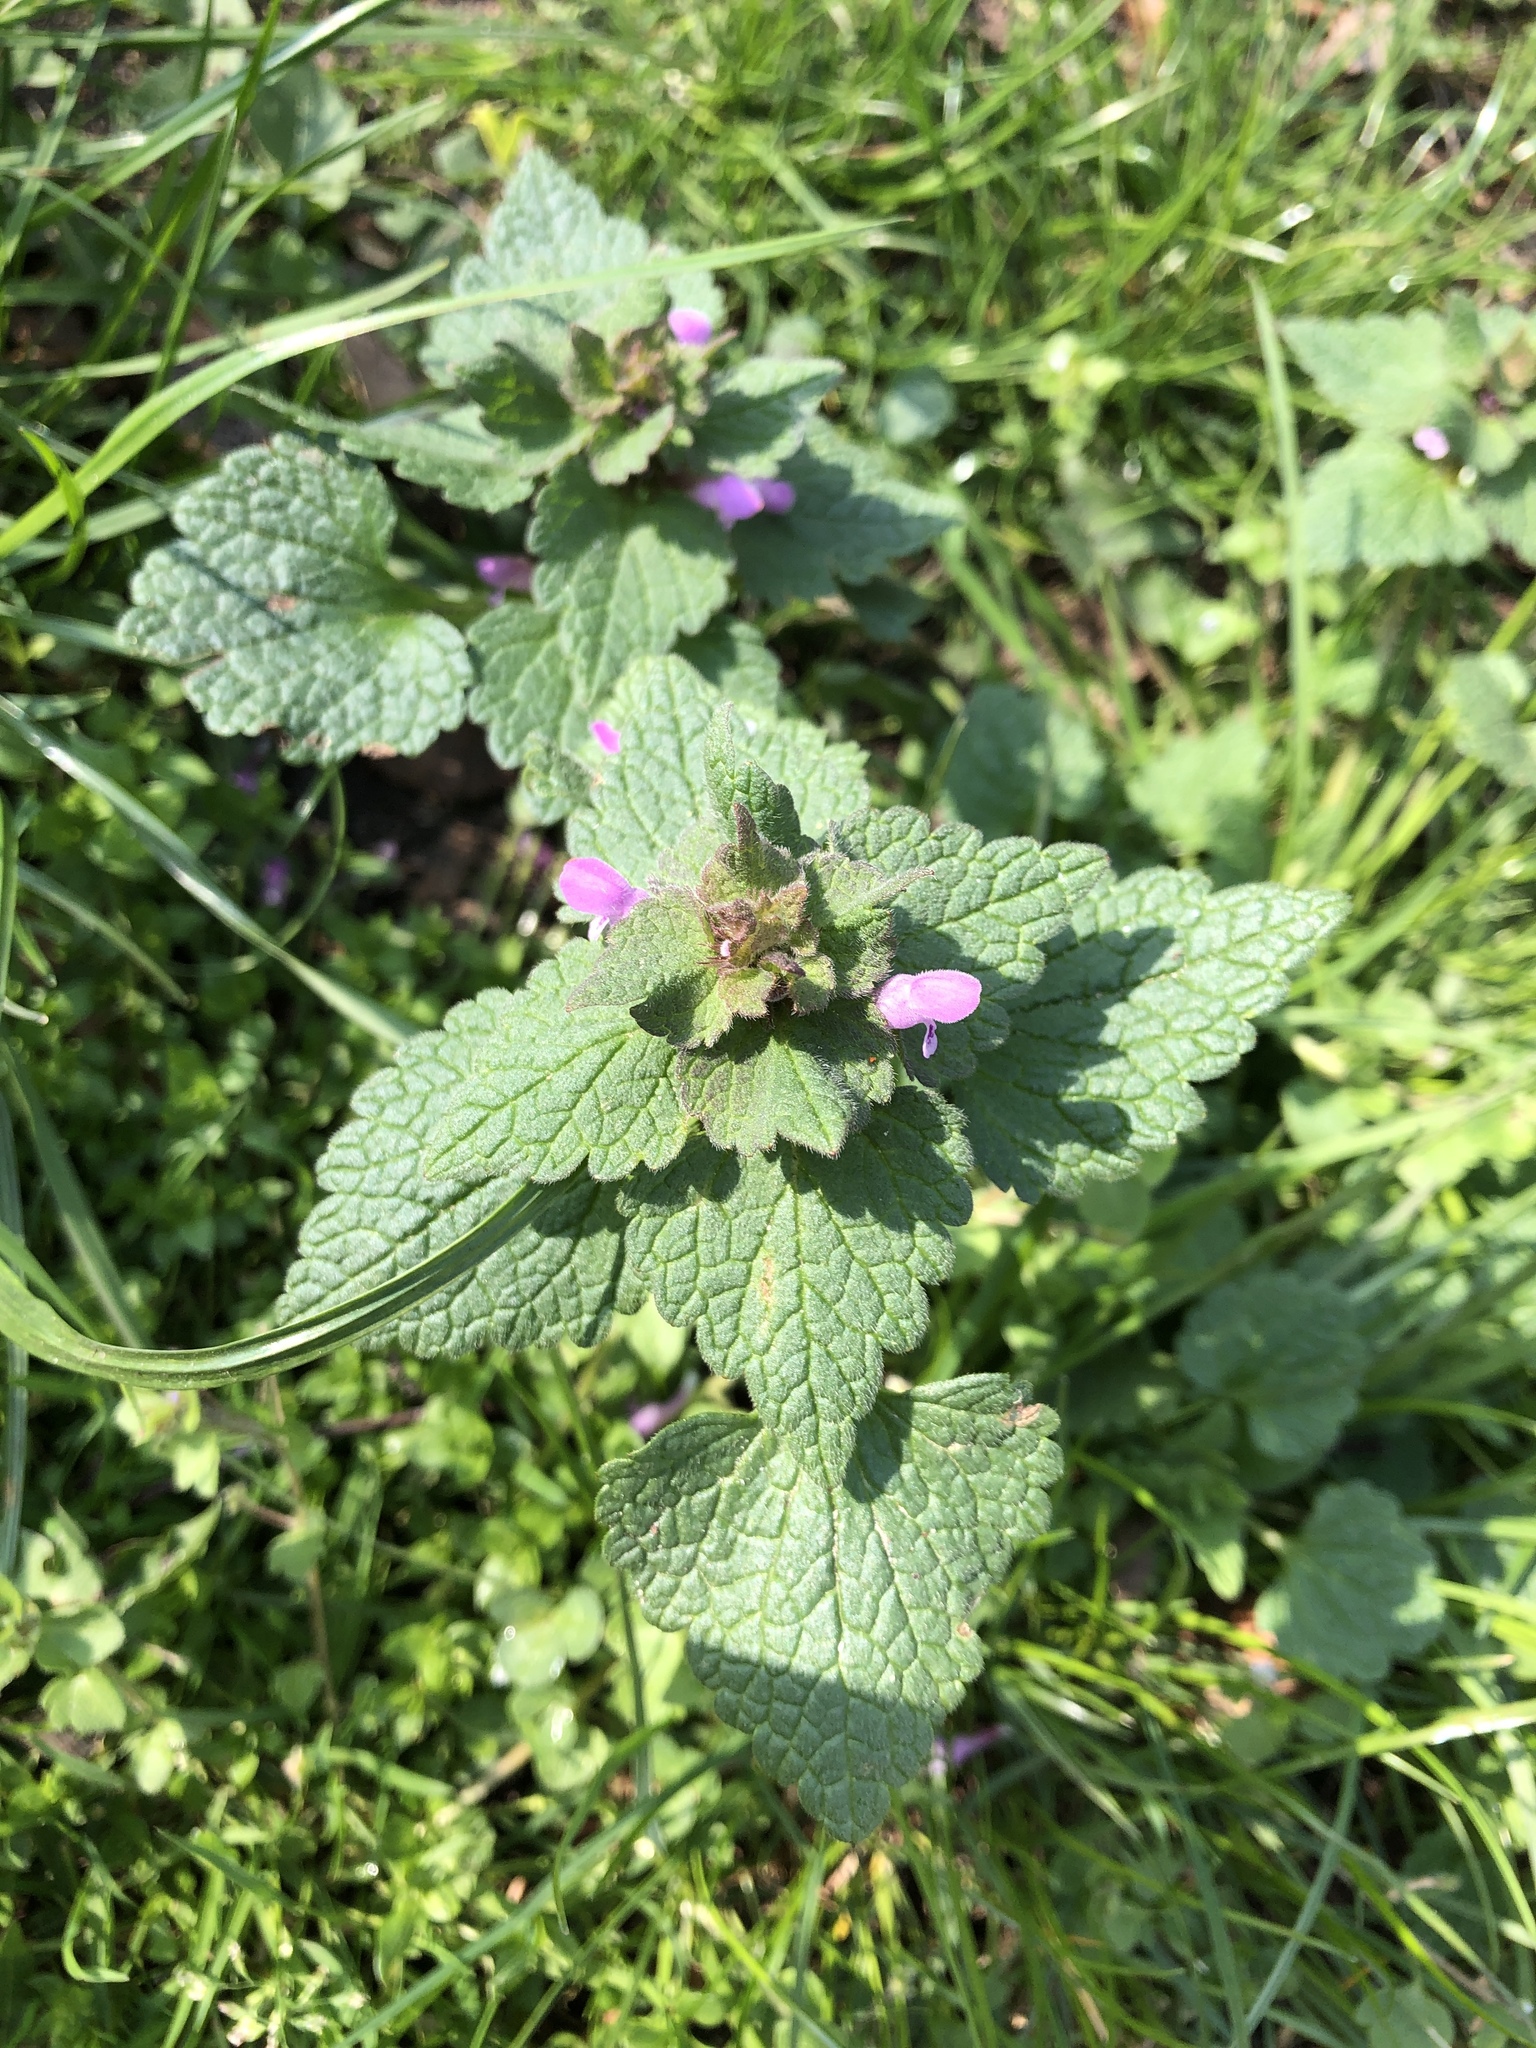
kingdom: Plantae
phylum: Tracheophyta
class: Magnoliopsida
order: Lamiales
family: Lamiaceae
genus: Lamium
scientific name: Lamium purpureum
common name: Red dead-nettle
